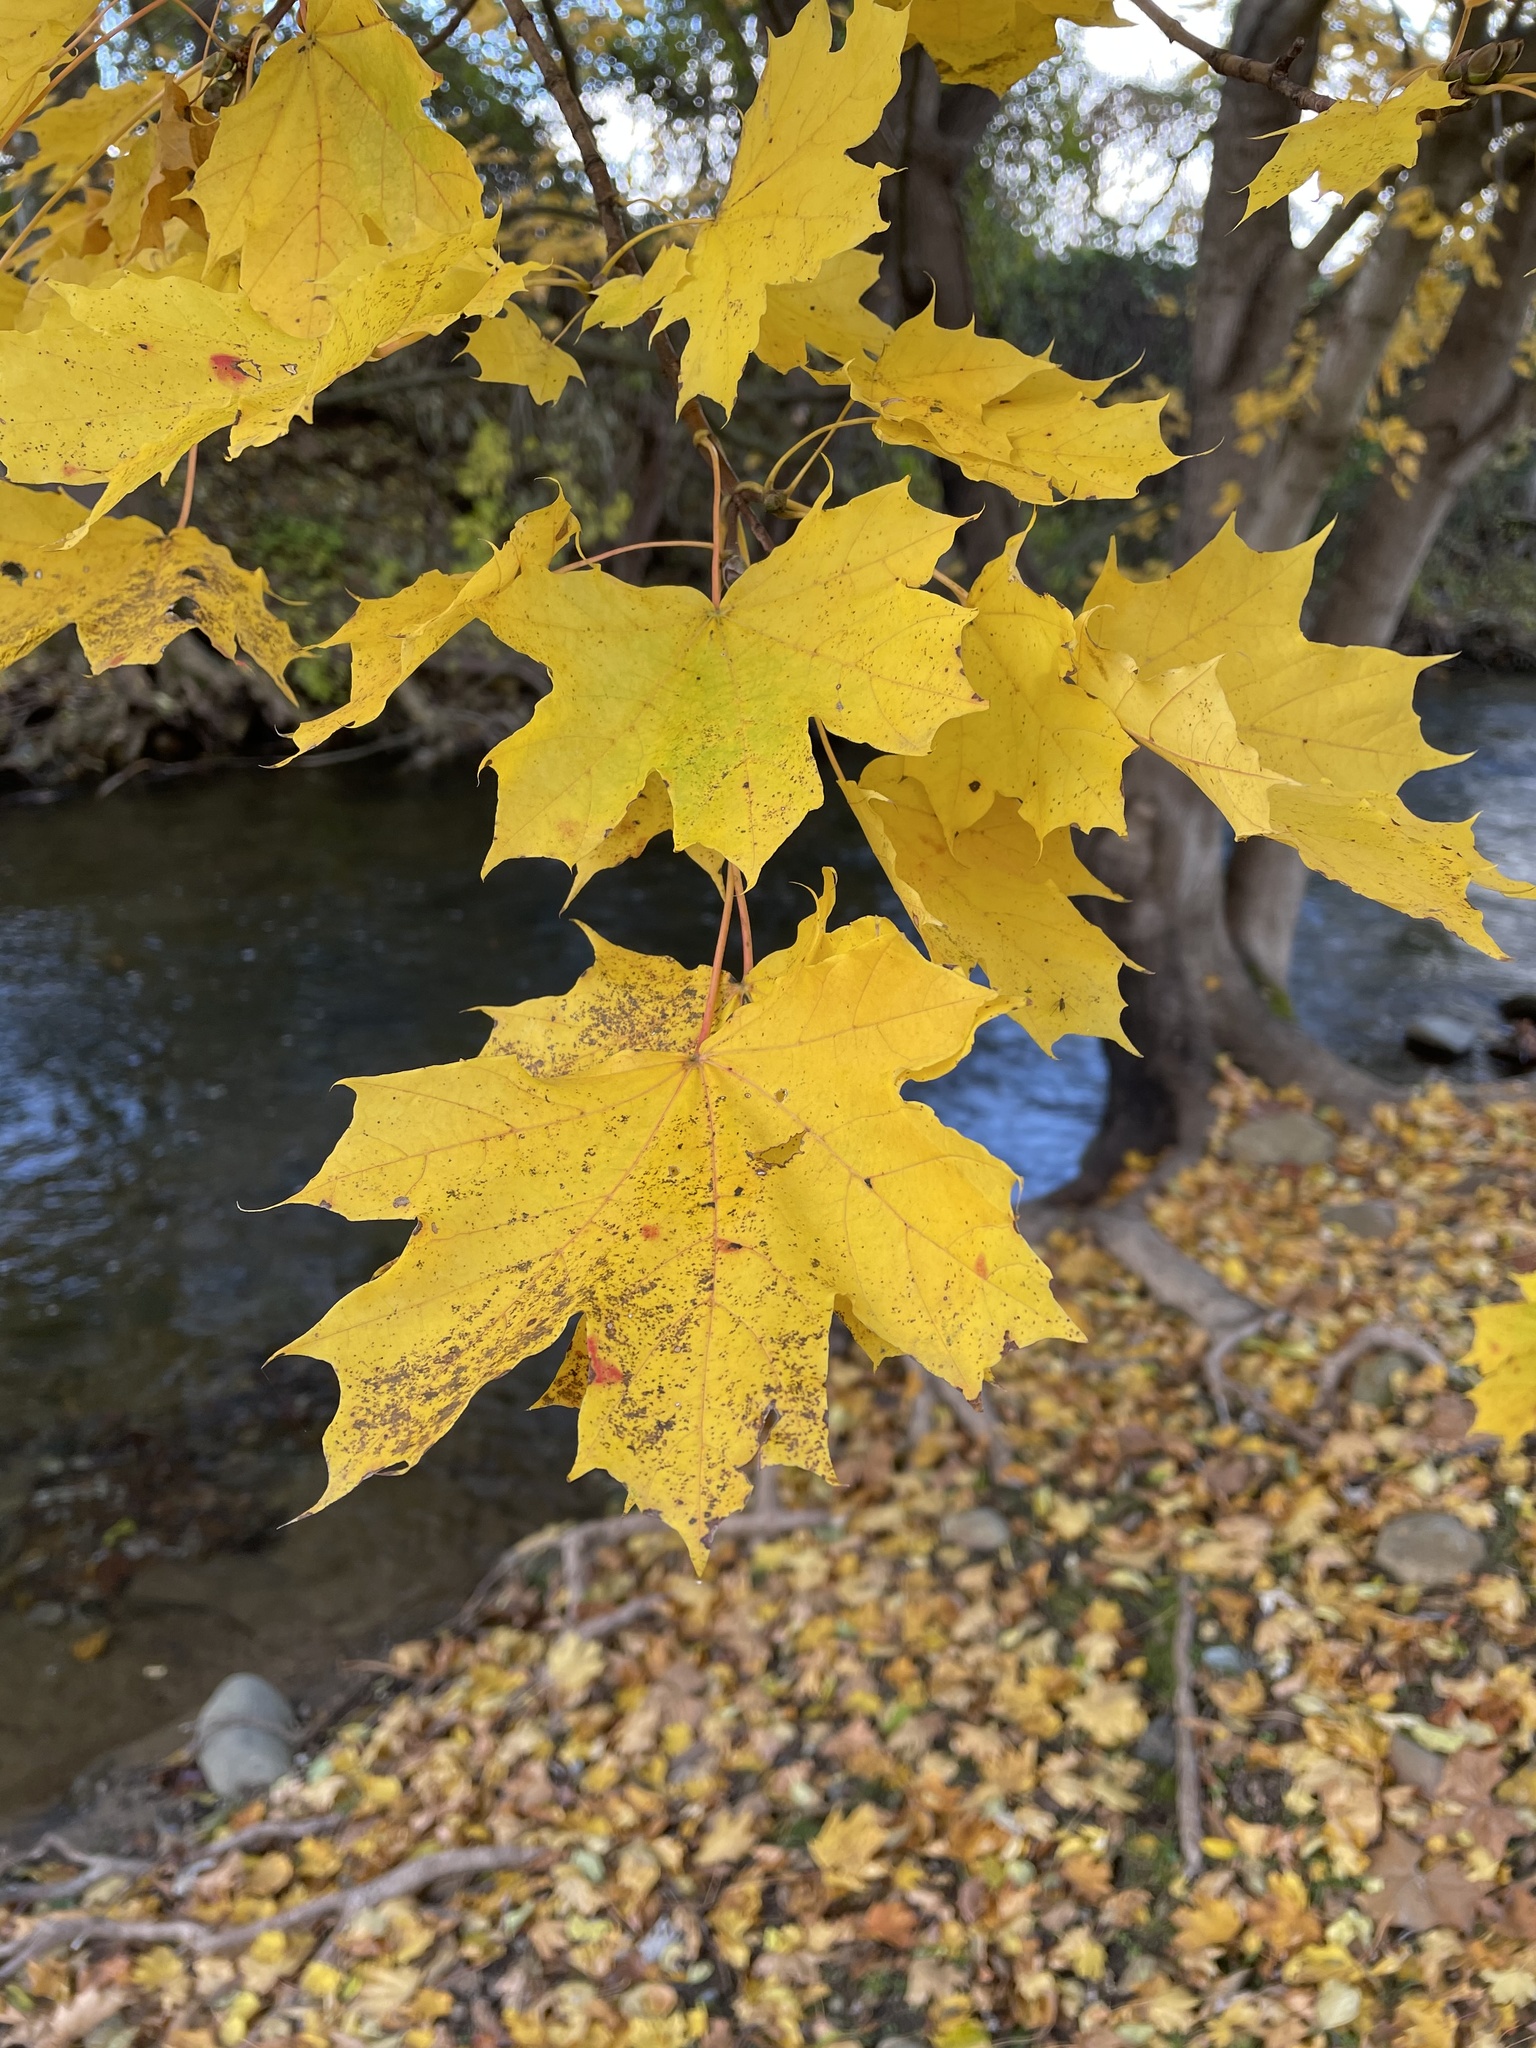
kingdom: Plantae
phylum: Tracheophyta
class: Magnoliopsida
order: Sapindales
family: Sapindaceae
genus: Acer
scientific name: Acer platanoides
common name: Norway maple
